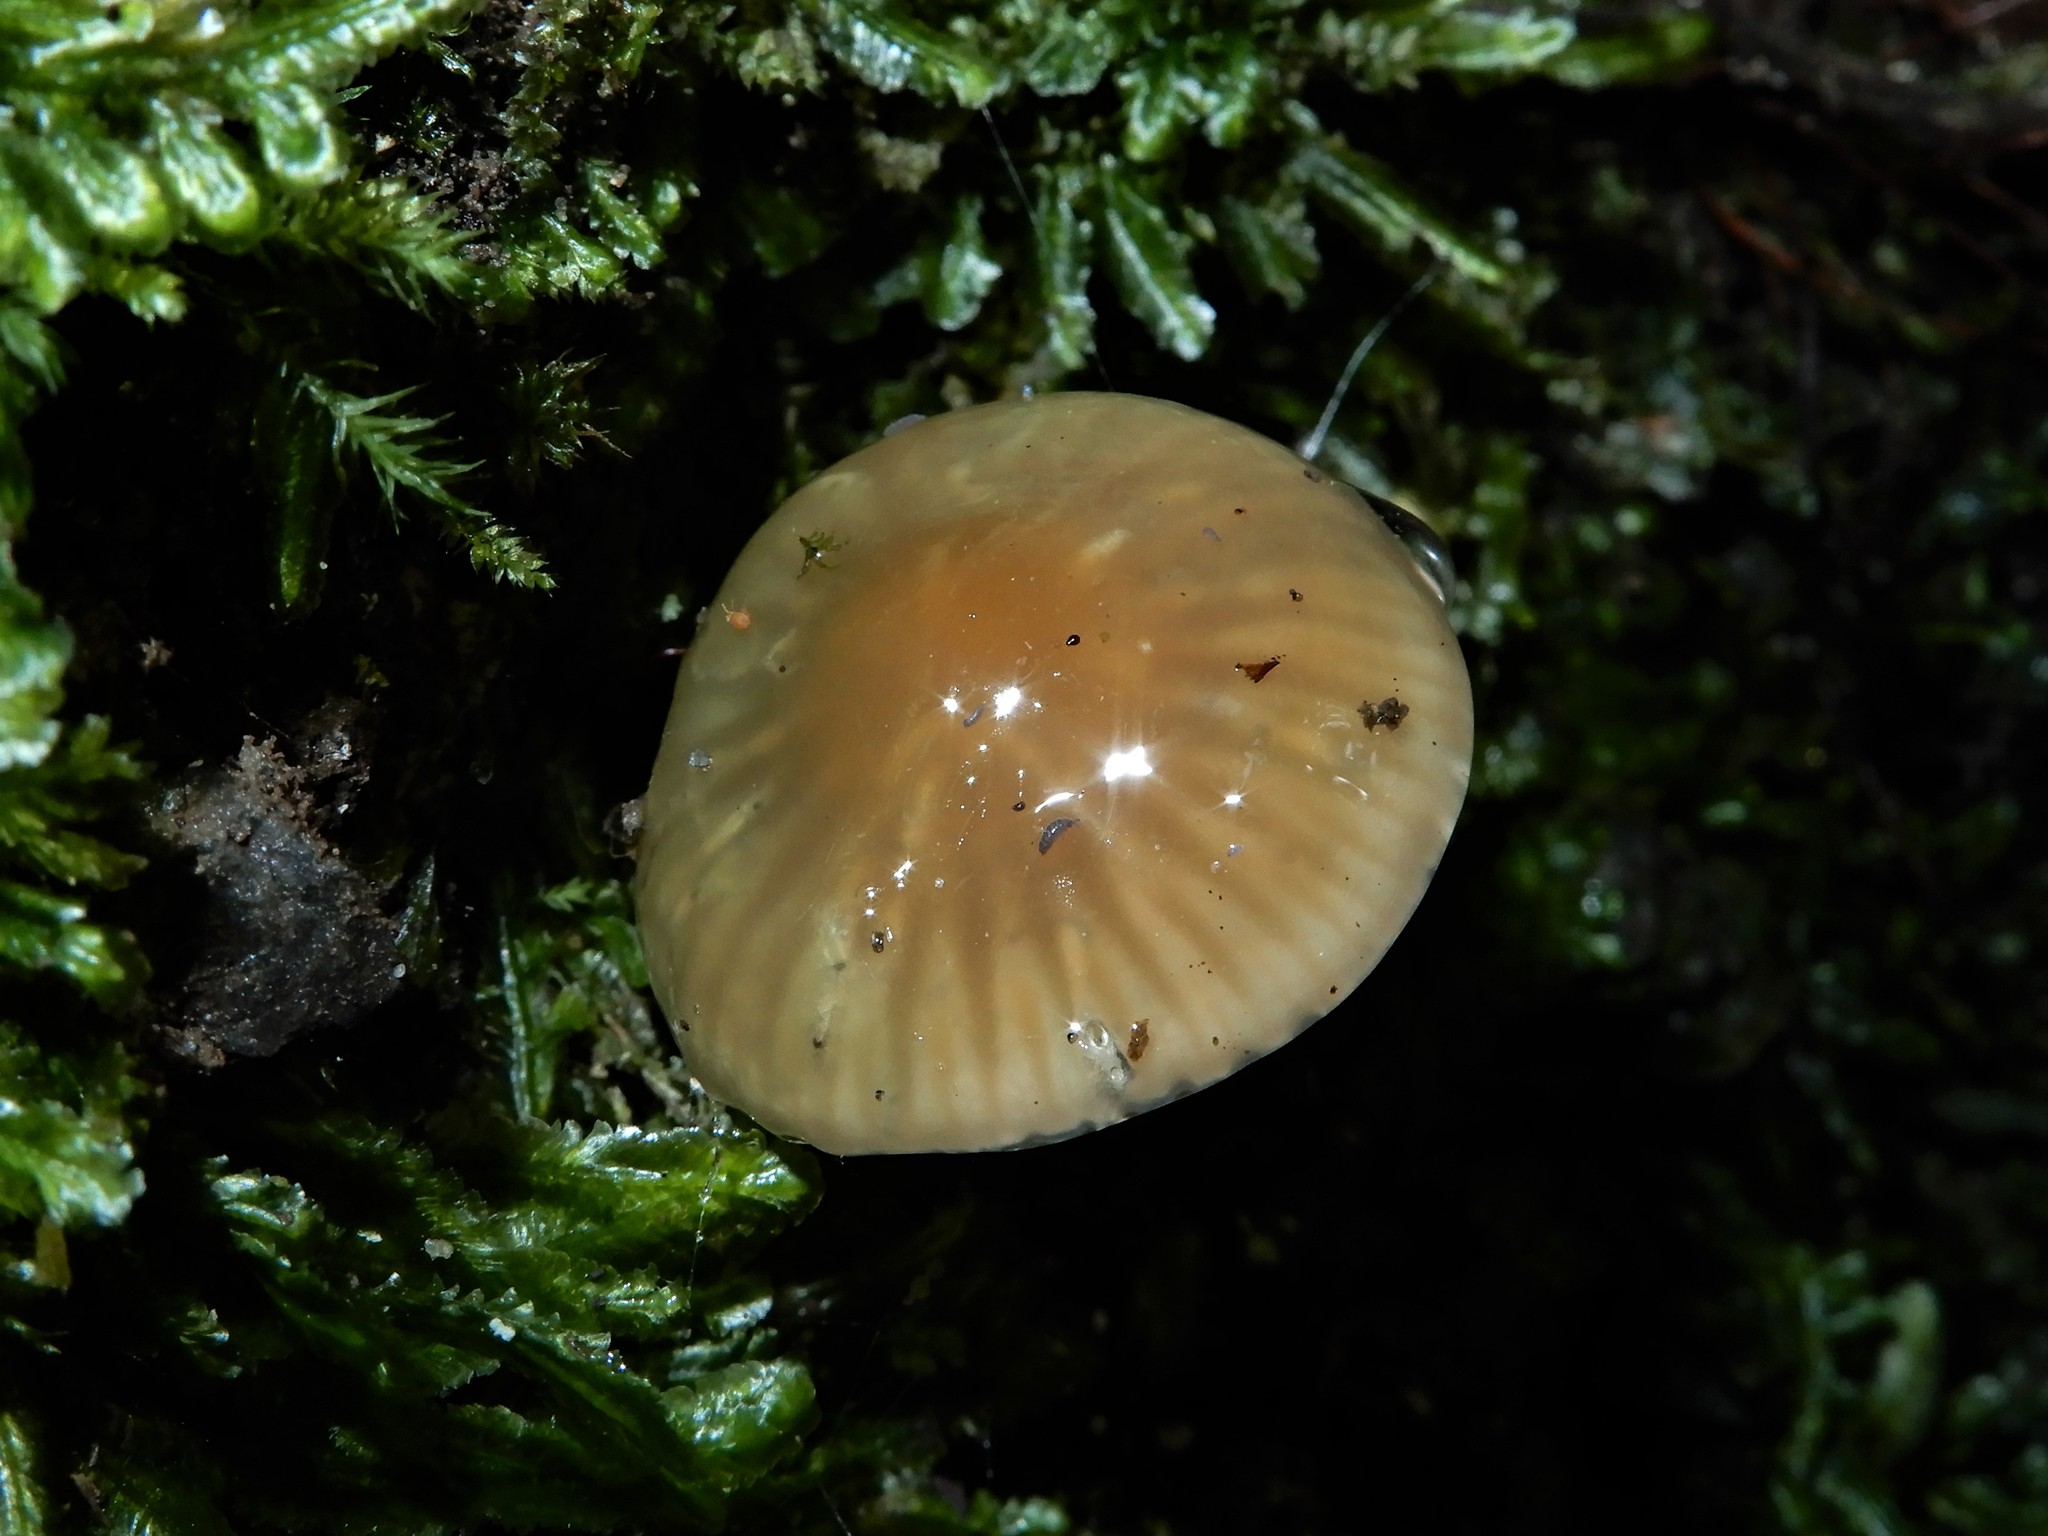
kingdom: Fungi
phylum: Basidiomycota
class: Agaricomycetes
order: Agaricales
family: Hygrophoraceae
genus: Gliophorus
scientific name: Gliophorus
